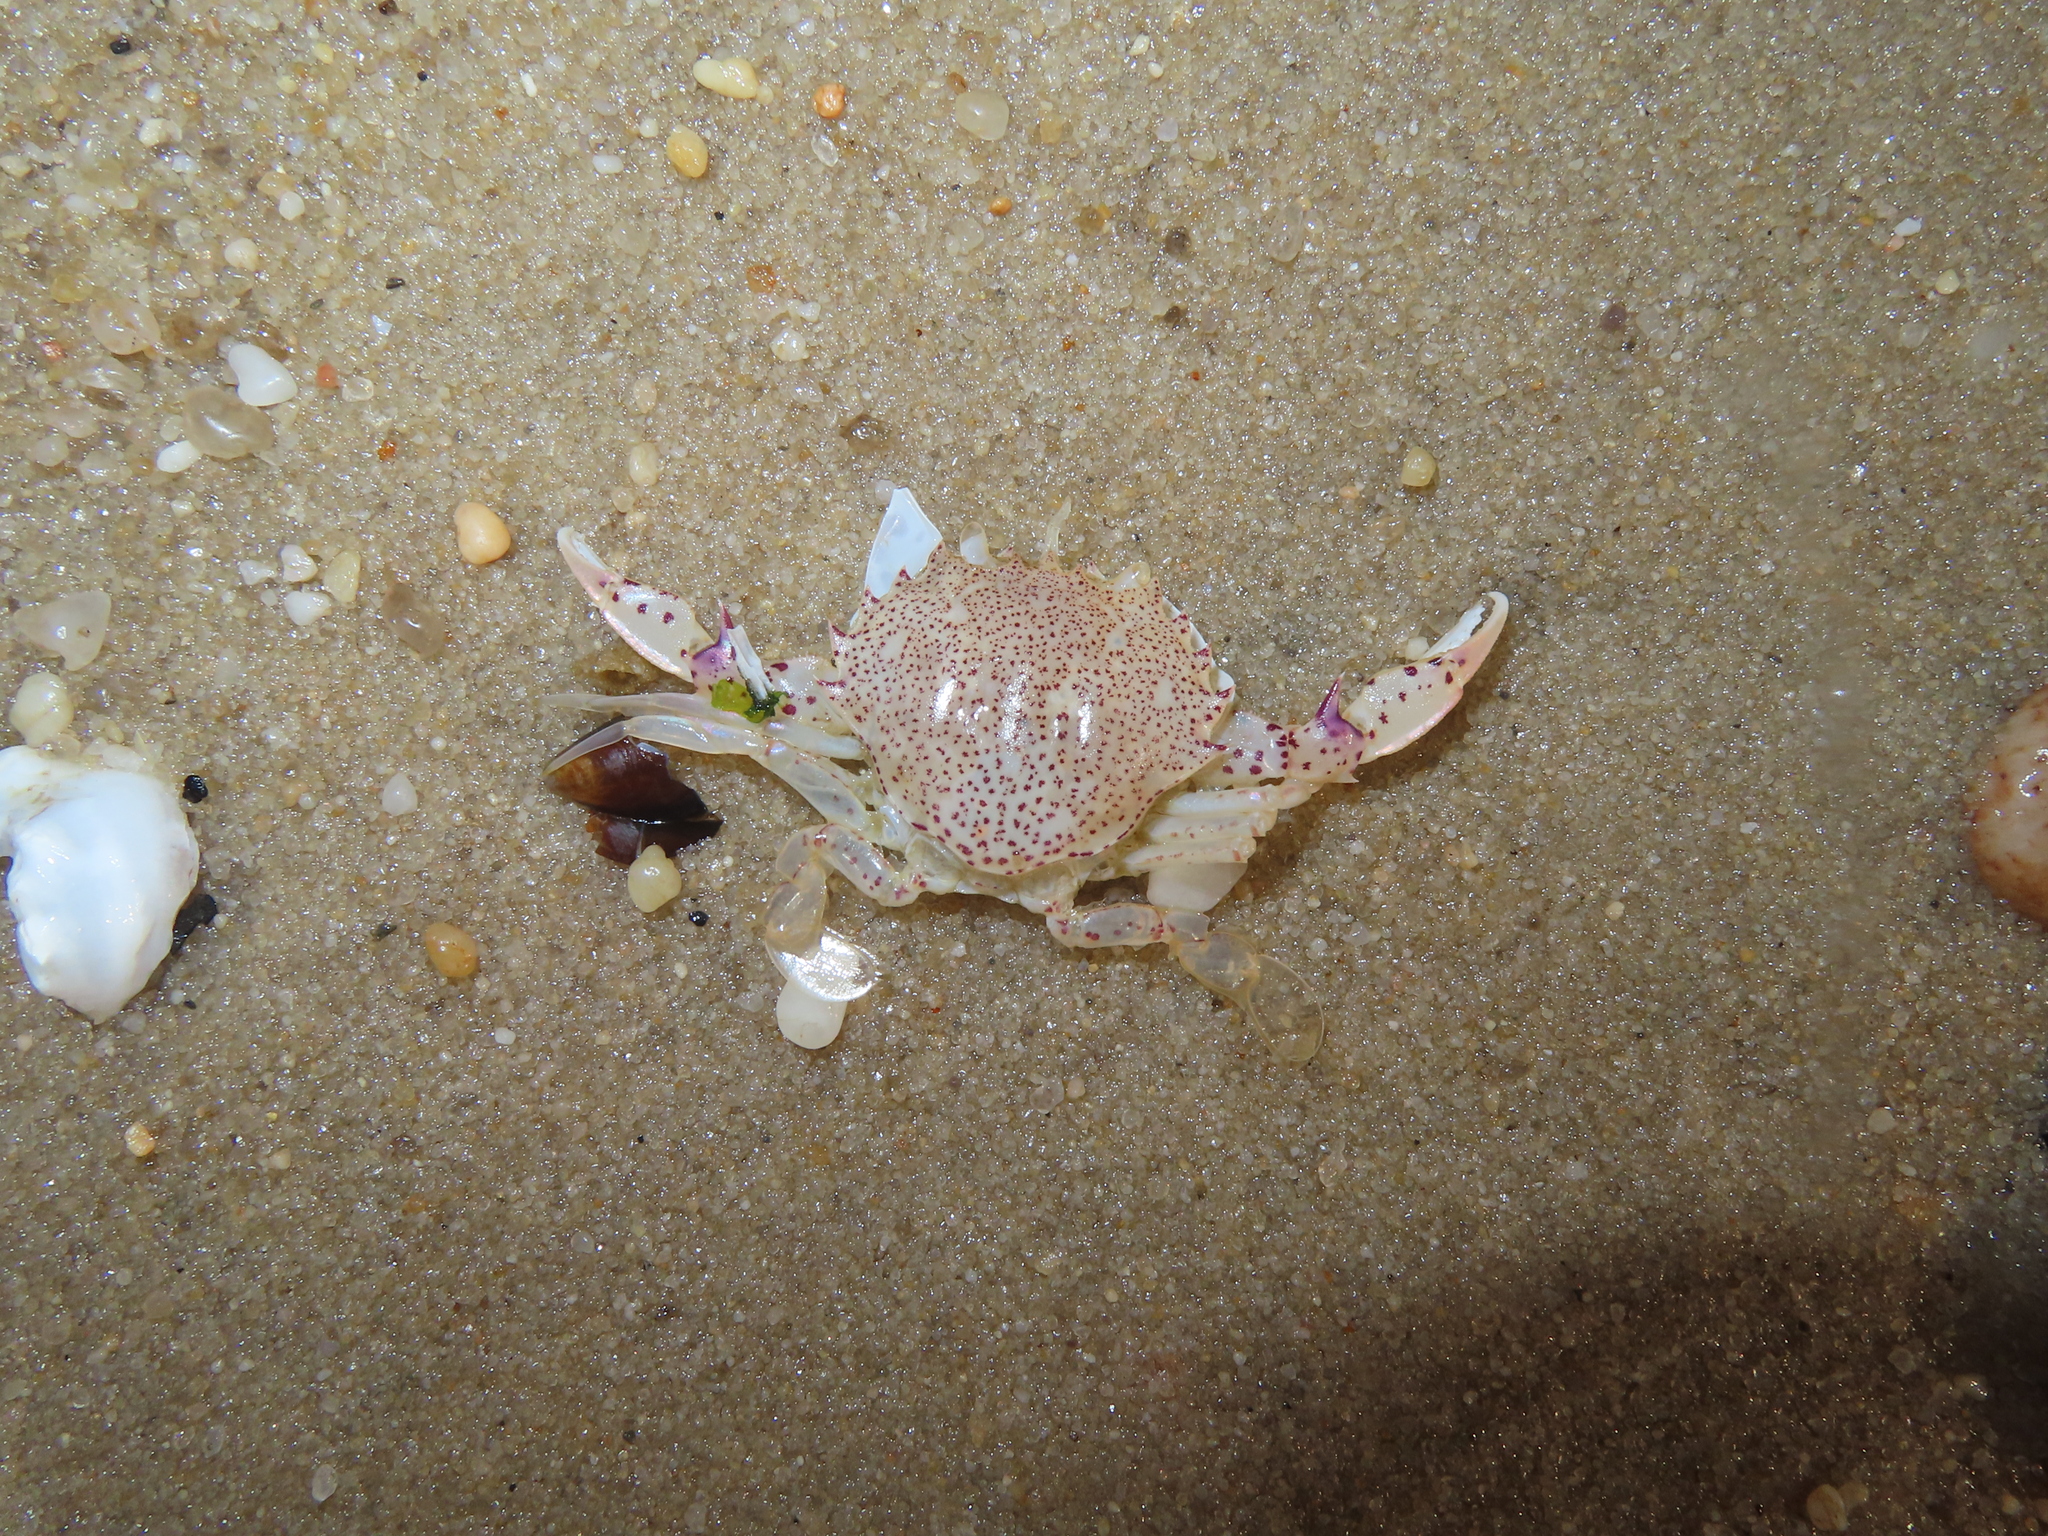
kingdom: Animalia
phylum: Arthropoda
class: Malacostraca
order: Decapoda
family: Ovalipidae
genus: Ovalipes
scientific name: Ovalipes ocellatus
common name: Lady crab
